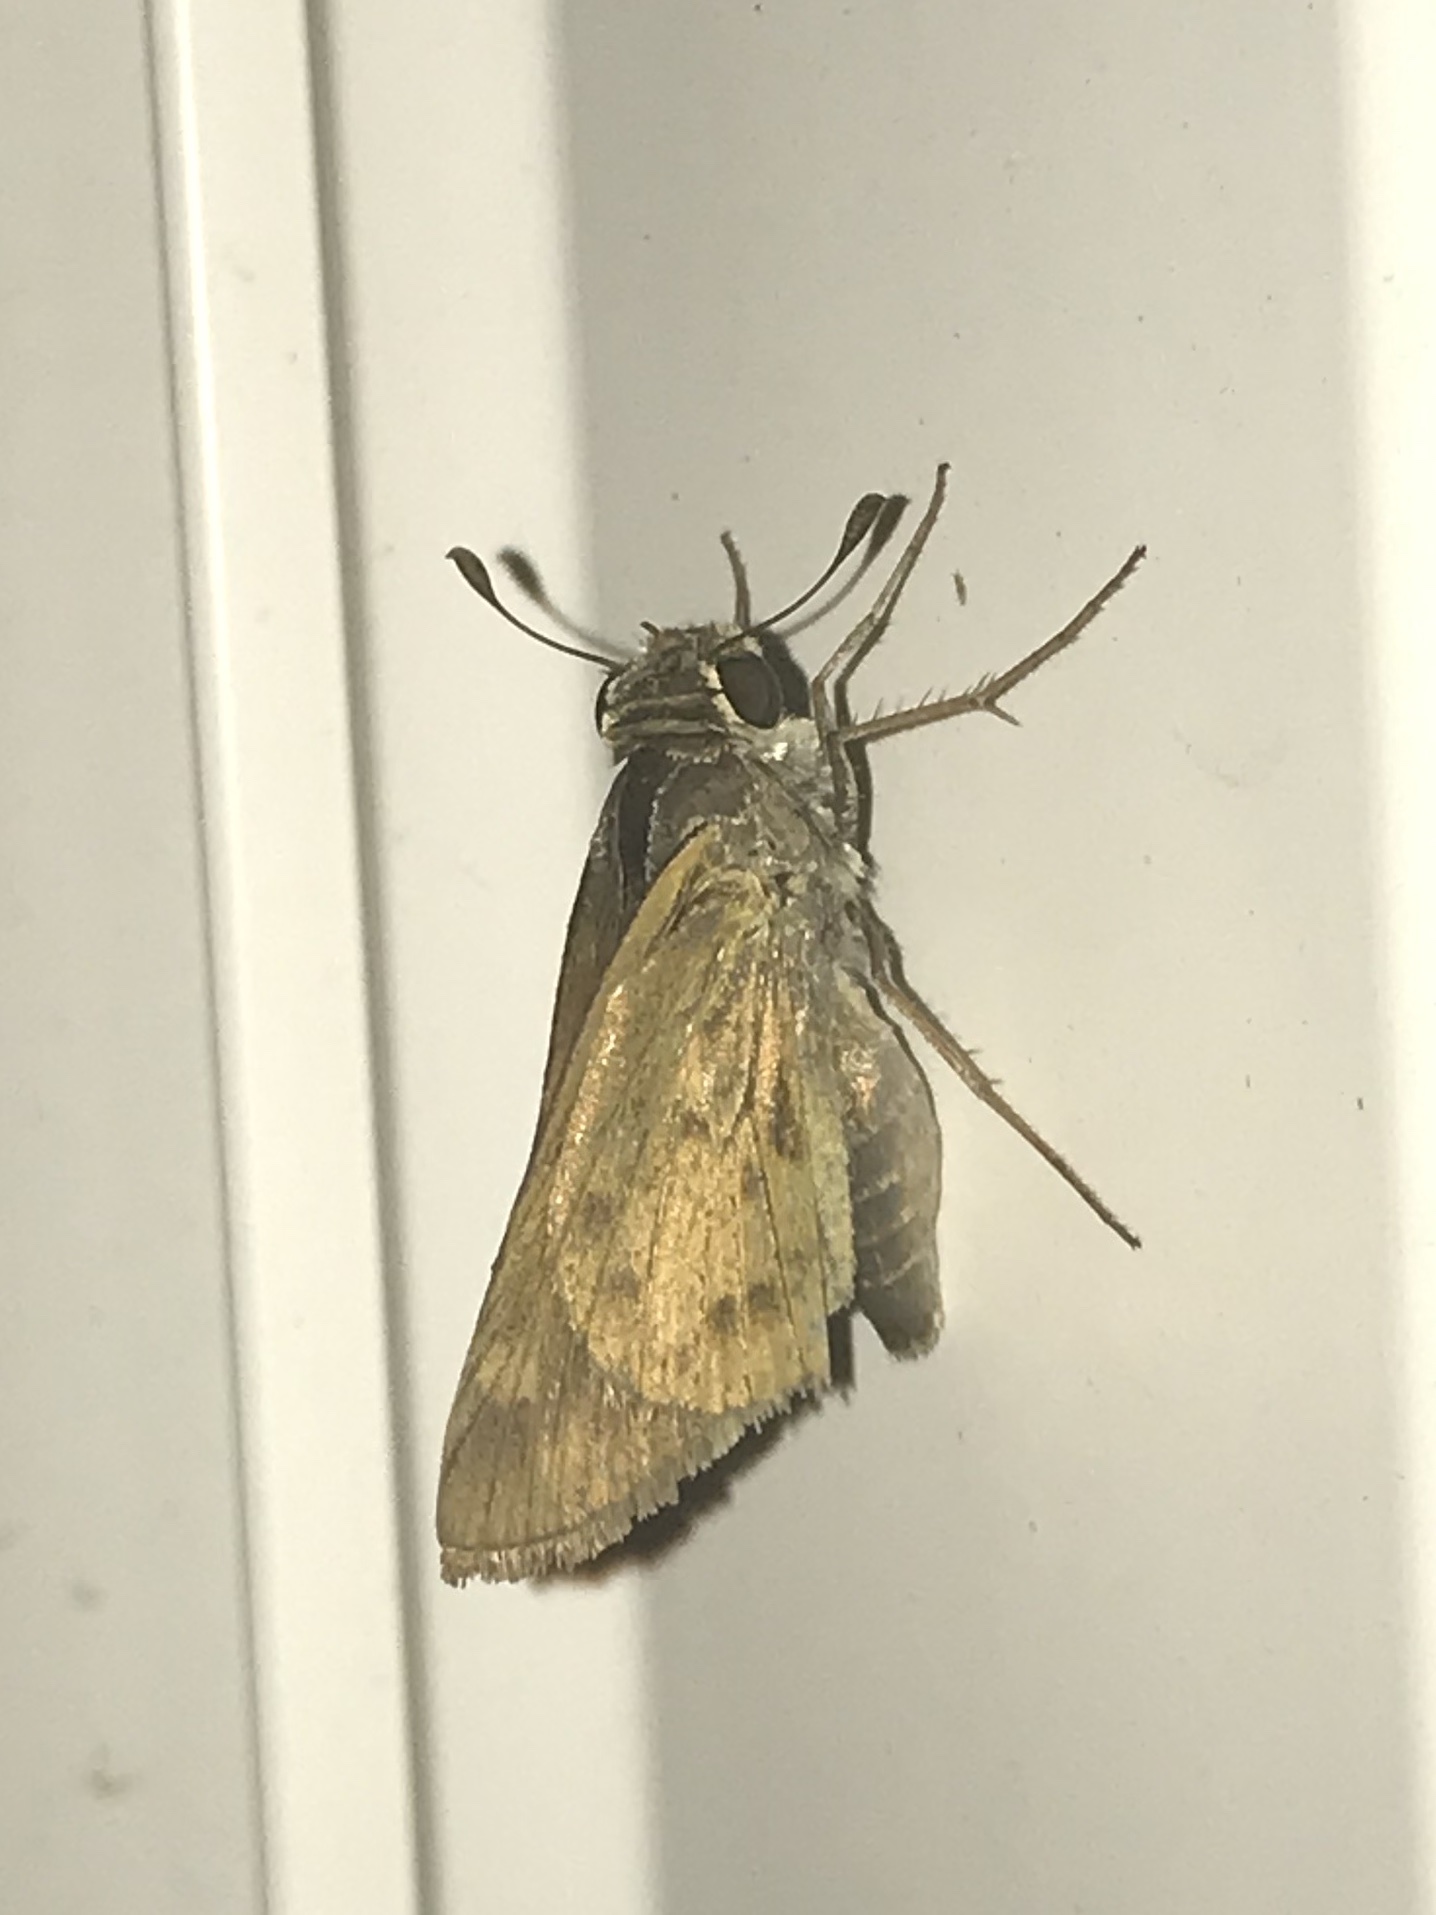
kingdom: Animalia
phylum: Arthropoda
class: Insecta
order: Lepidoptera
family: Hesperiidae
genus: Hylephila
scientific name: Hylephila phyleus
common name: Fiery skipper
